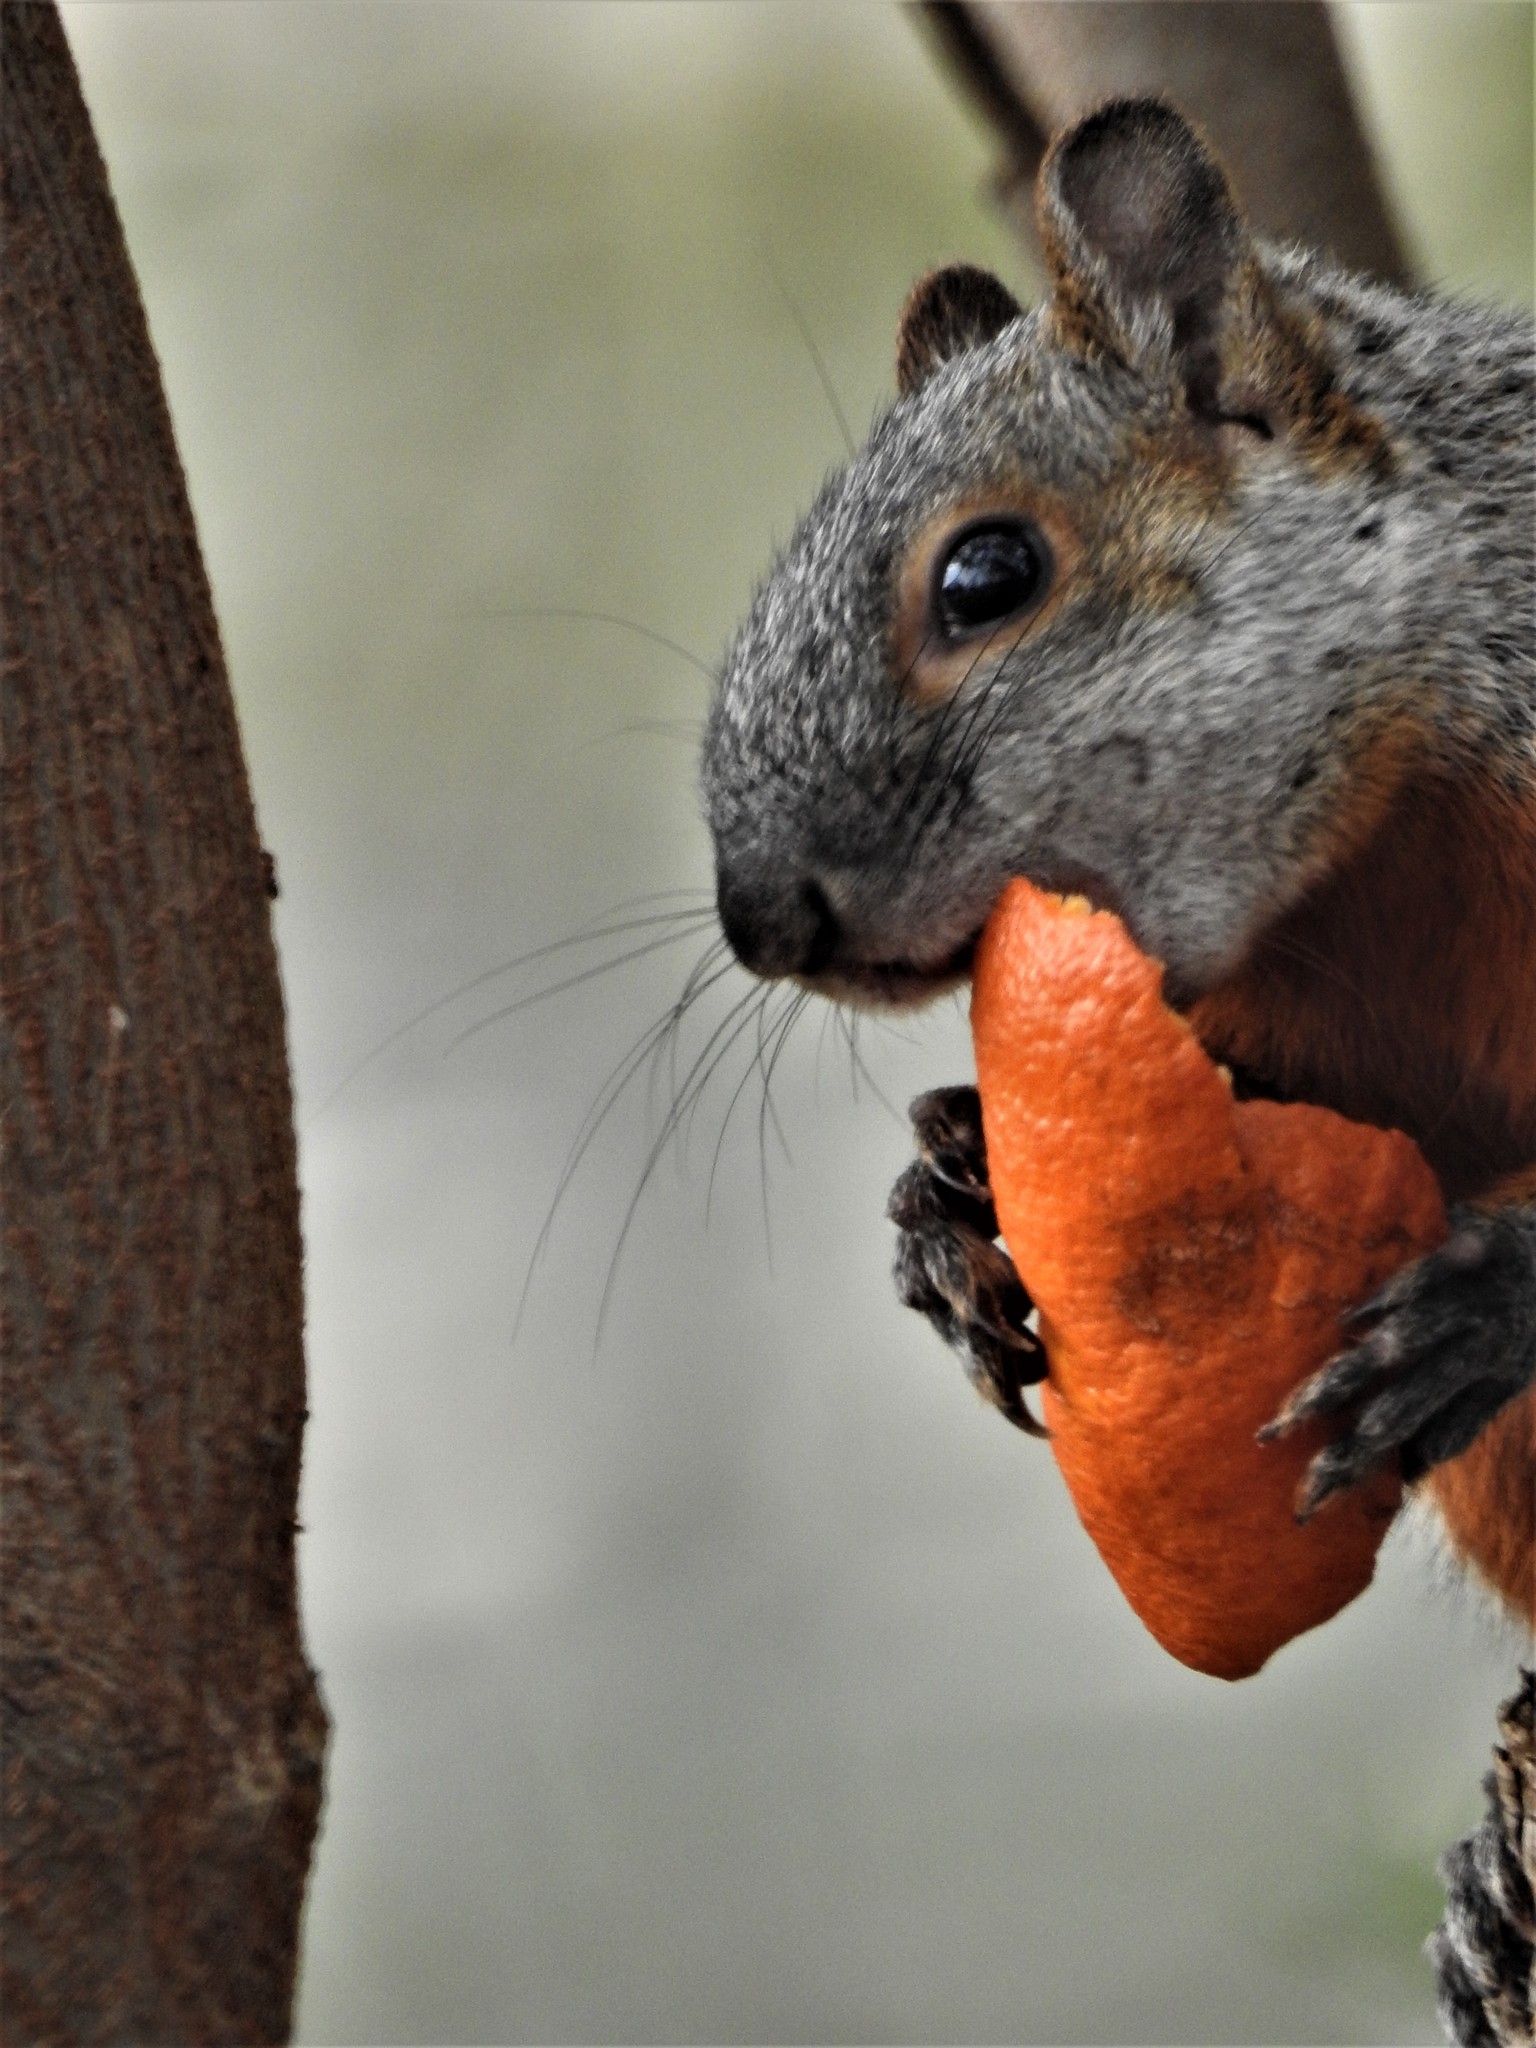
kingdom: Animalia
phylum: Chordata
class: Mammalia
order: Rodentia
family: Sciuridae
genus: Sciurus
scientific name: Sciurus aureogaster
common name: Red-bellied squirrel
